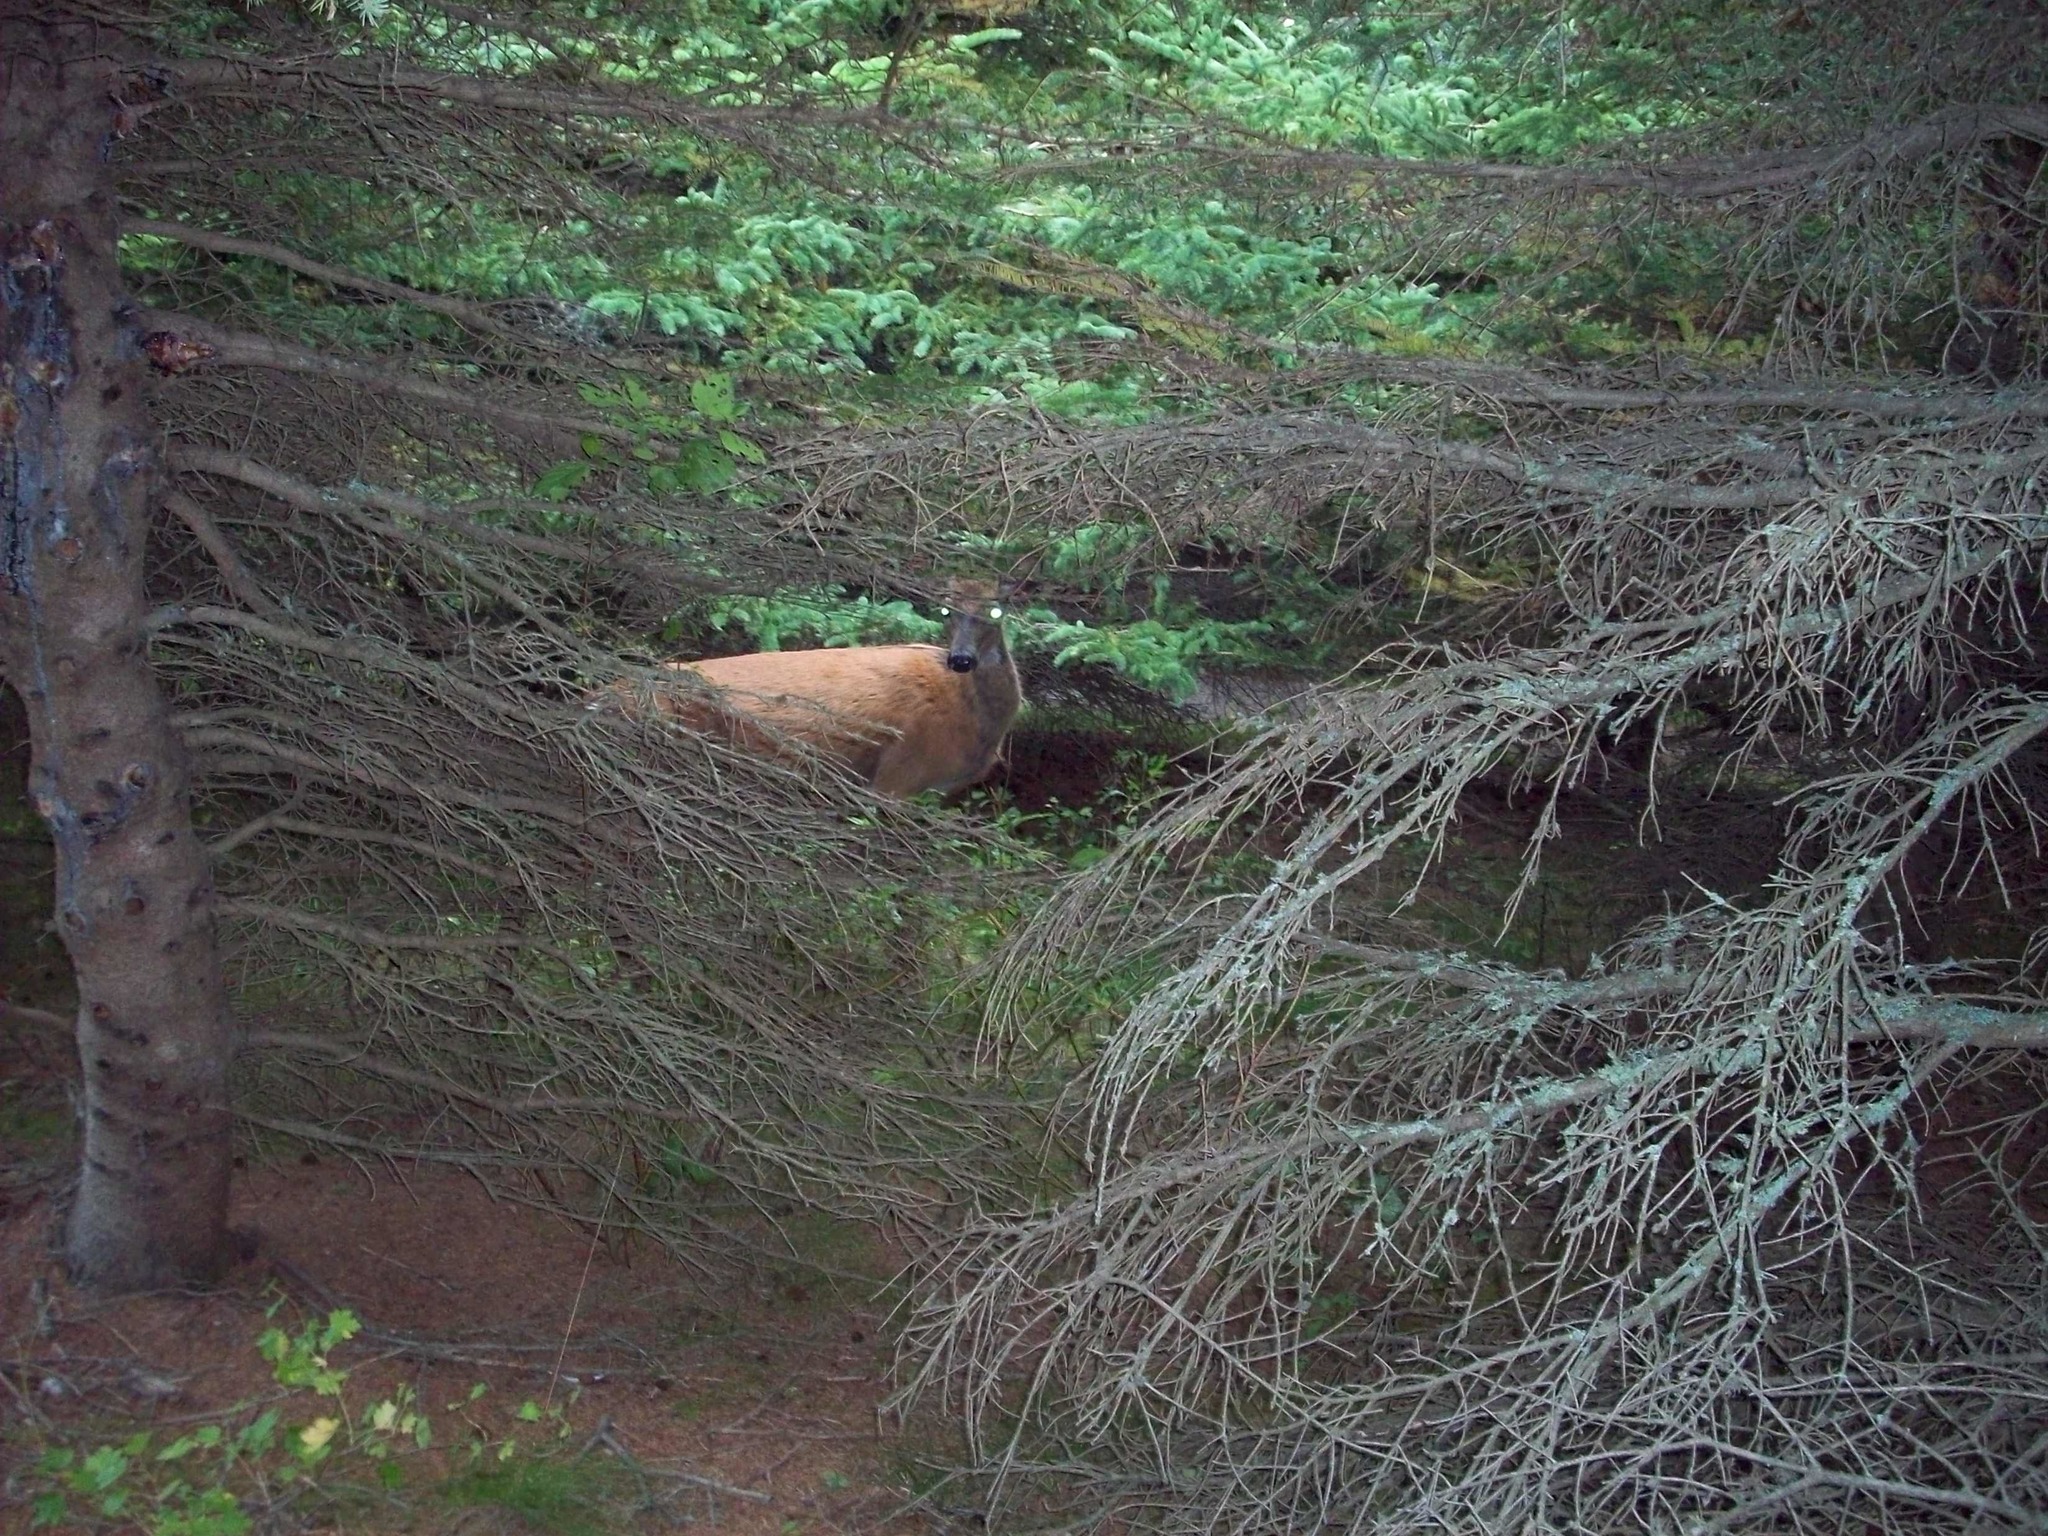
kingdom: Animalia
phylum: Chordata
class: Mammalia
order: Artiodactyla
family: Cervidae
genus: Odocoileus
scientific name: Odocoileus virginianus
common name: White-tailed deer
